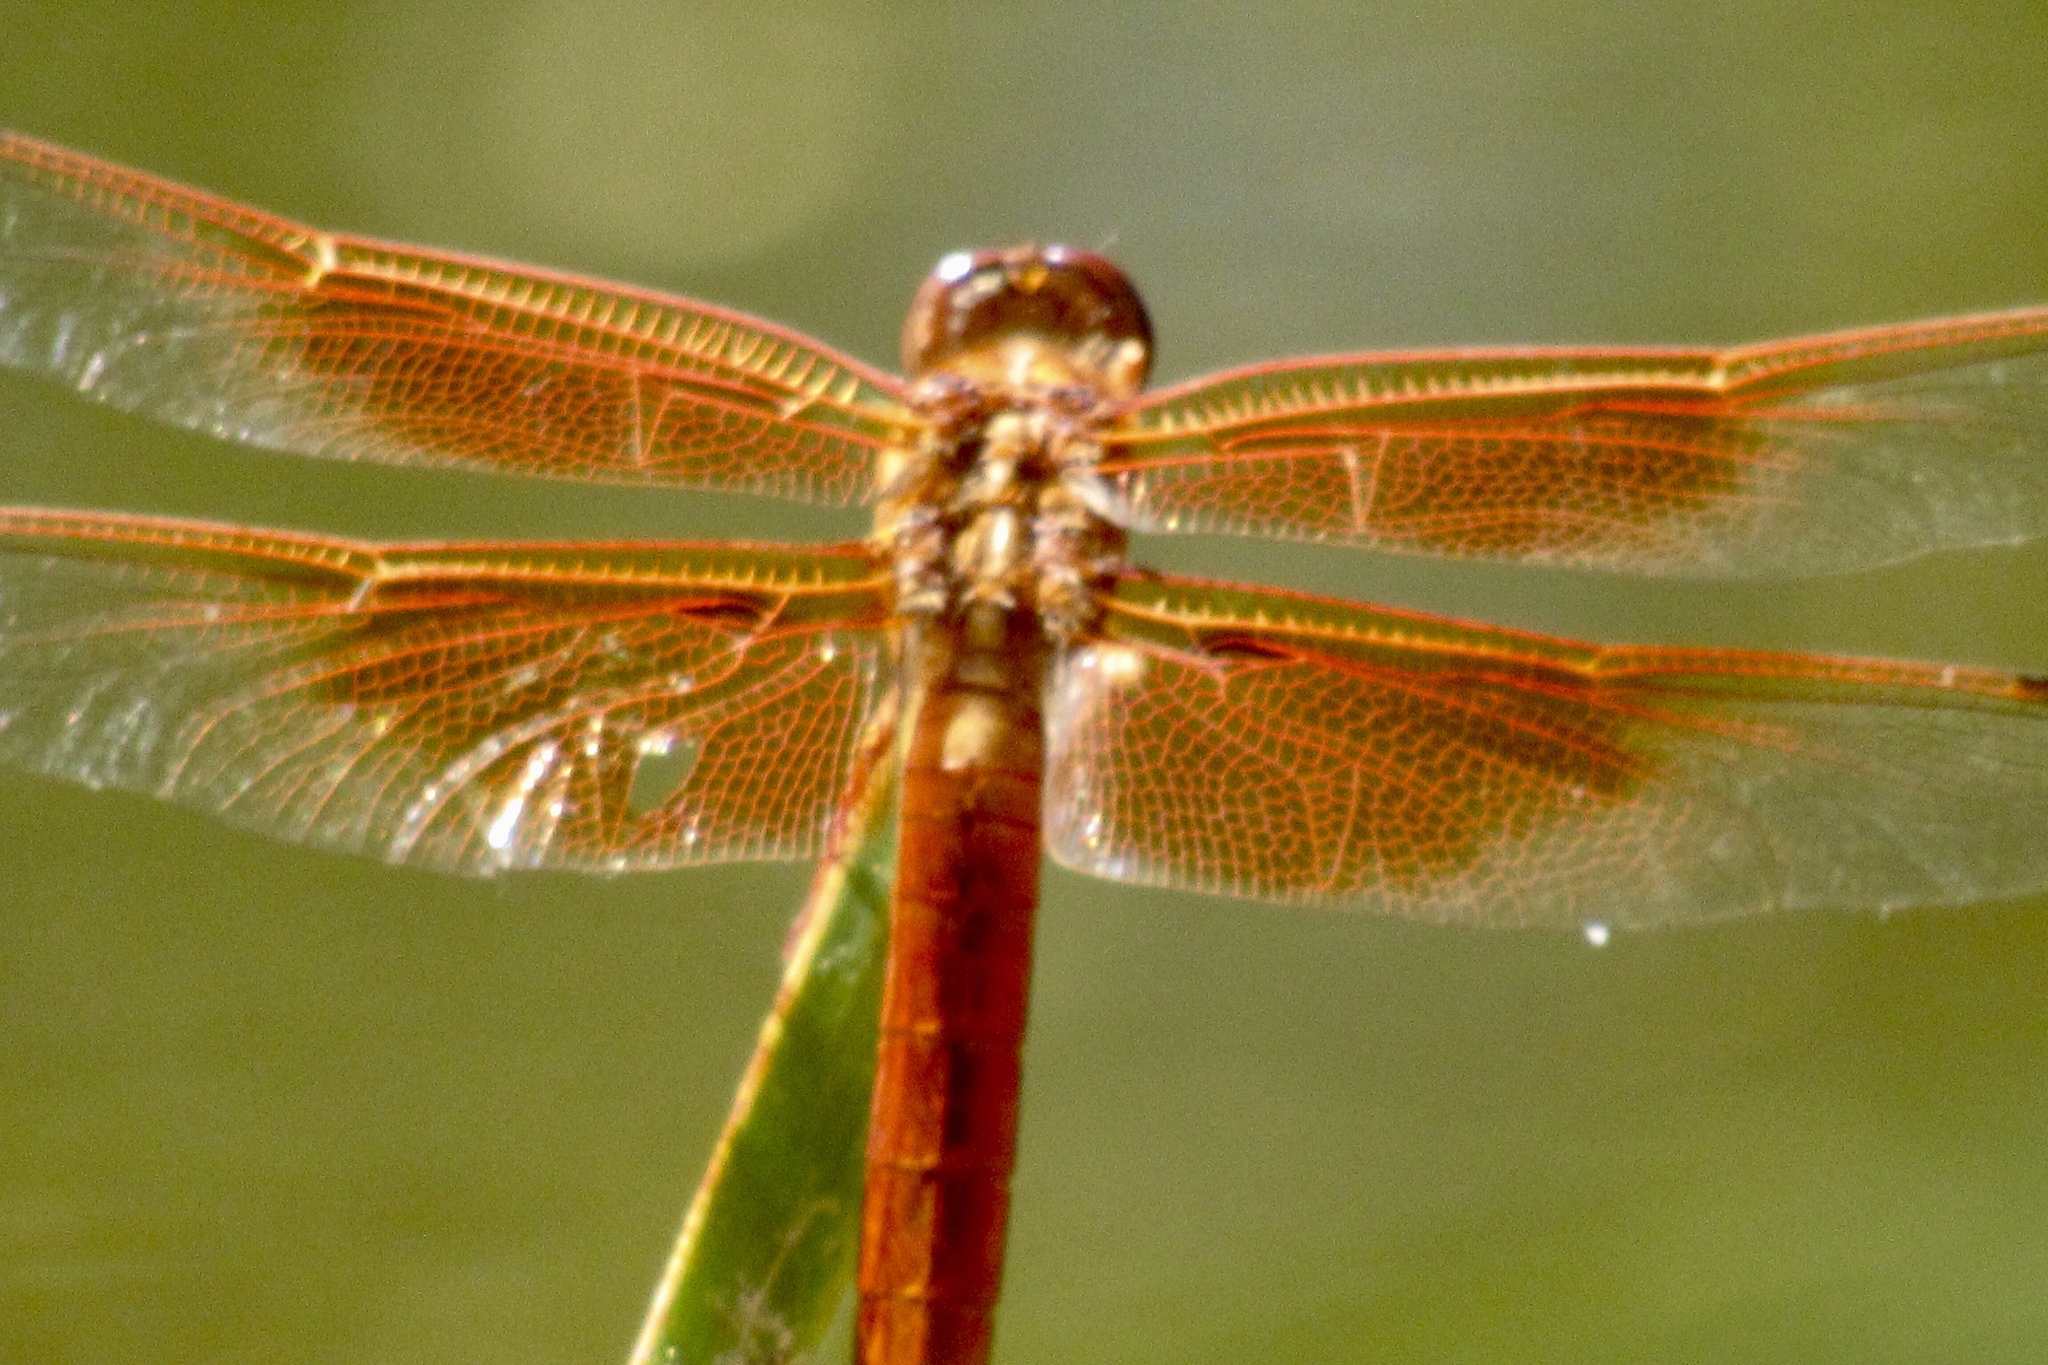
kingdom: Animalia
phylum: Arthropoda
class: Insecta
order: Odonata
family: Libellulidae
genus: Libellula
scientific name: Libellula saturata
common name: Flame skimmer
